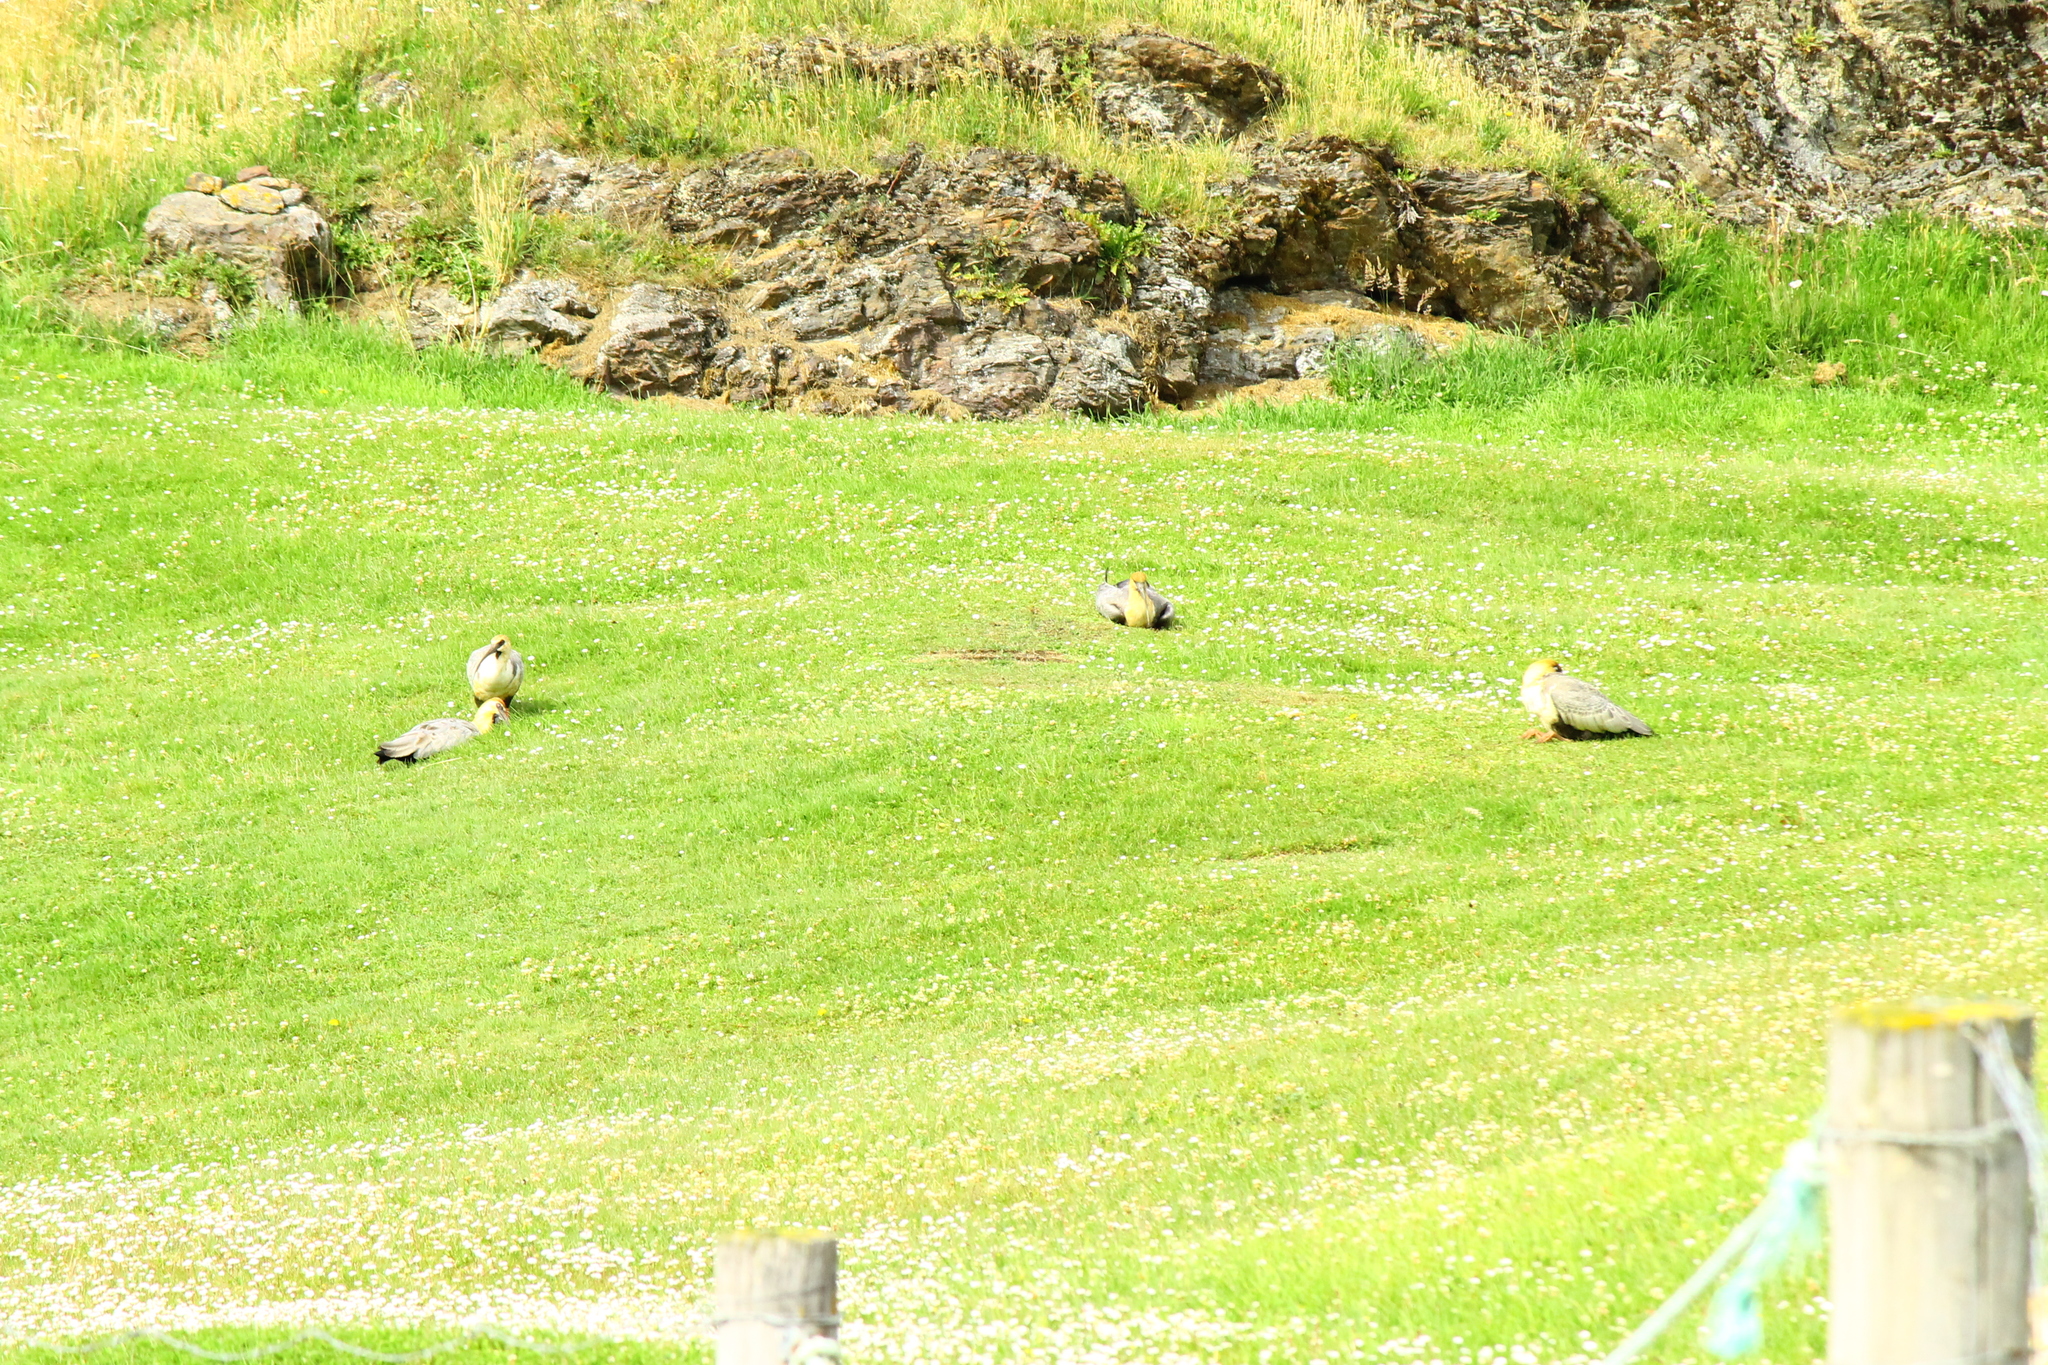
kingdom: Animalia
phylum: Chordata
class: Aves
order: Pelecaniformes
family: Threskiornithidae
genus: Theristicus
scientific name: Theristicus melanopis
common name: Black-faced ibis
